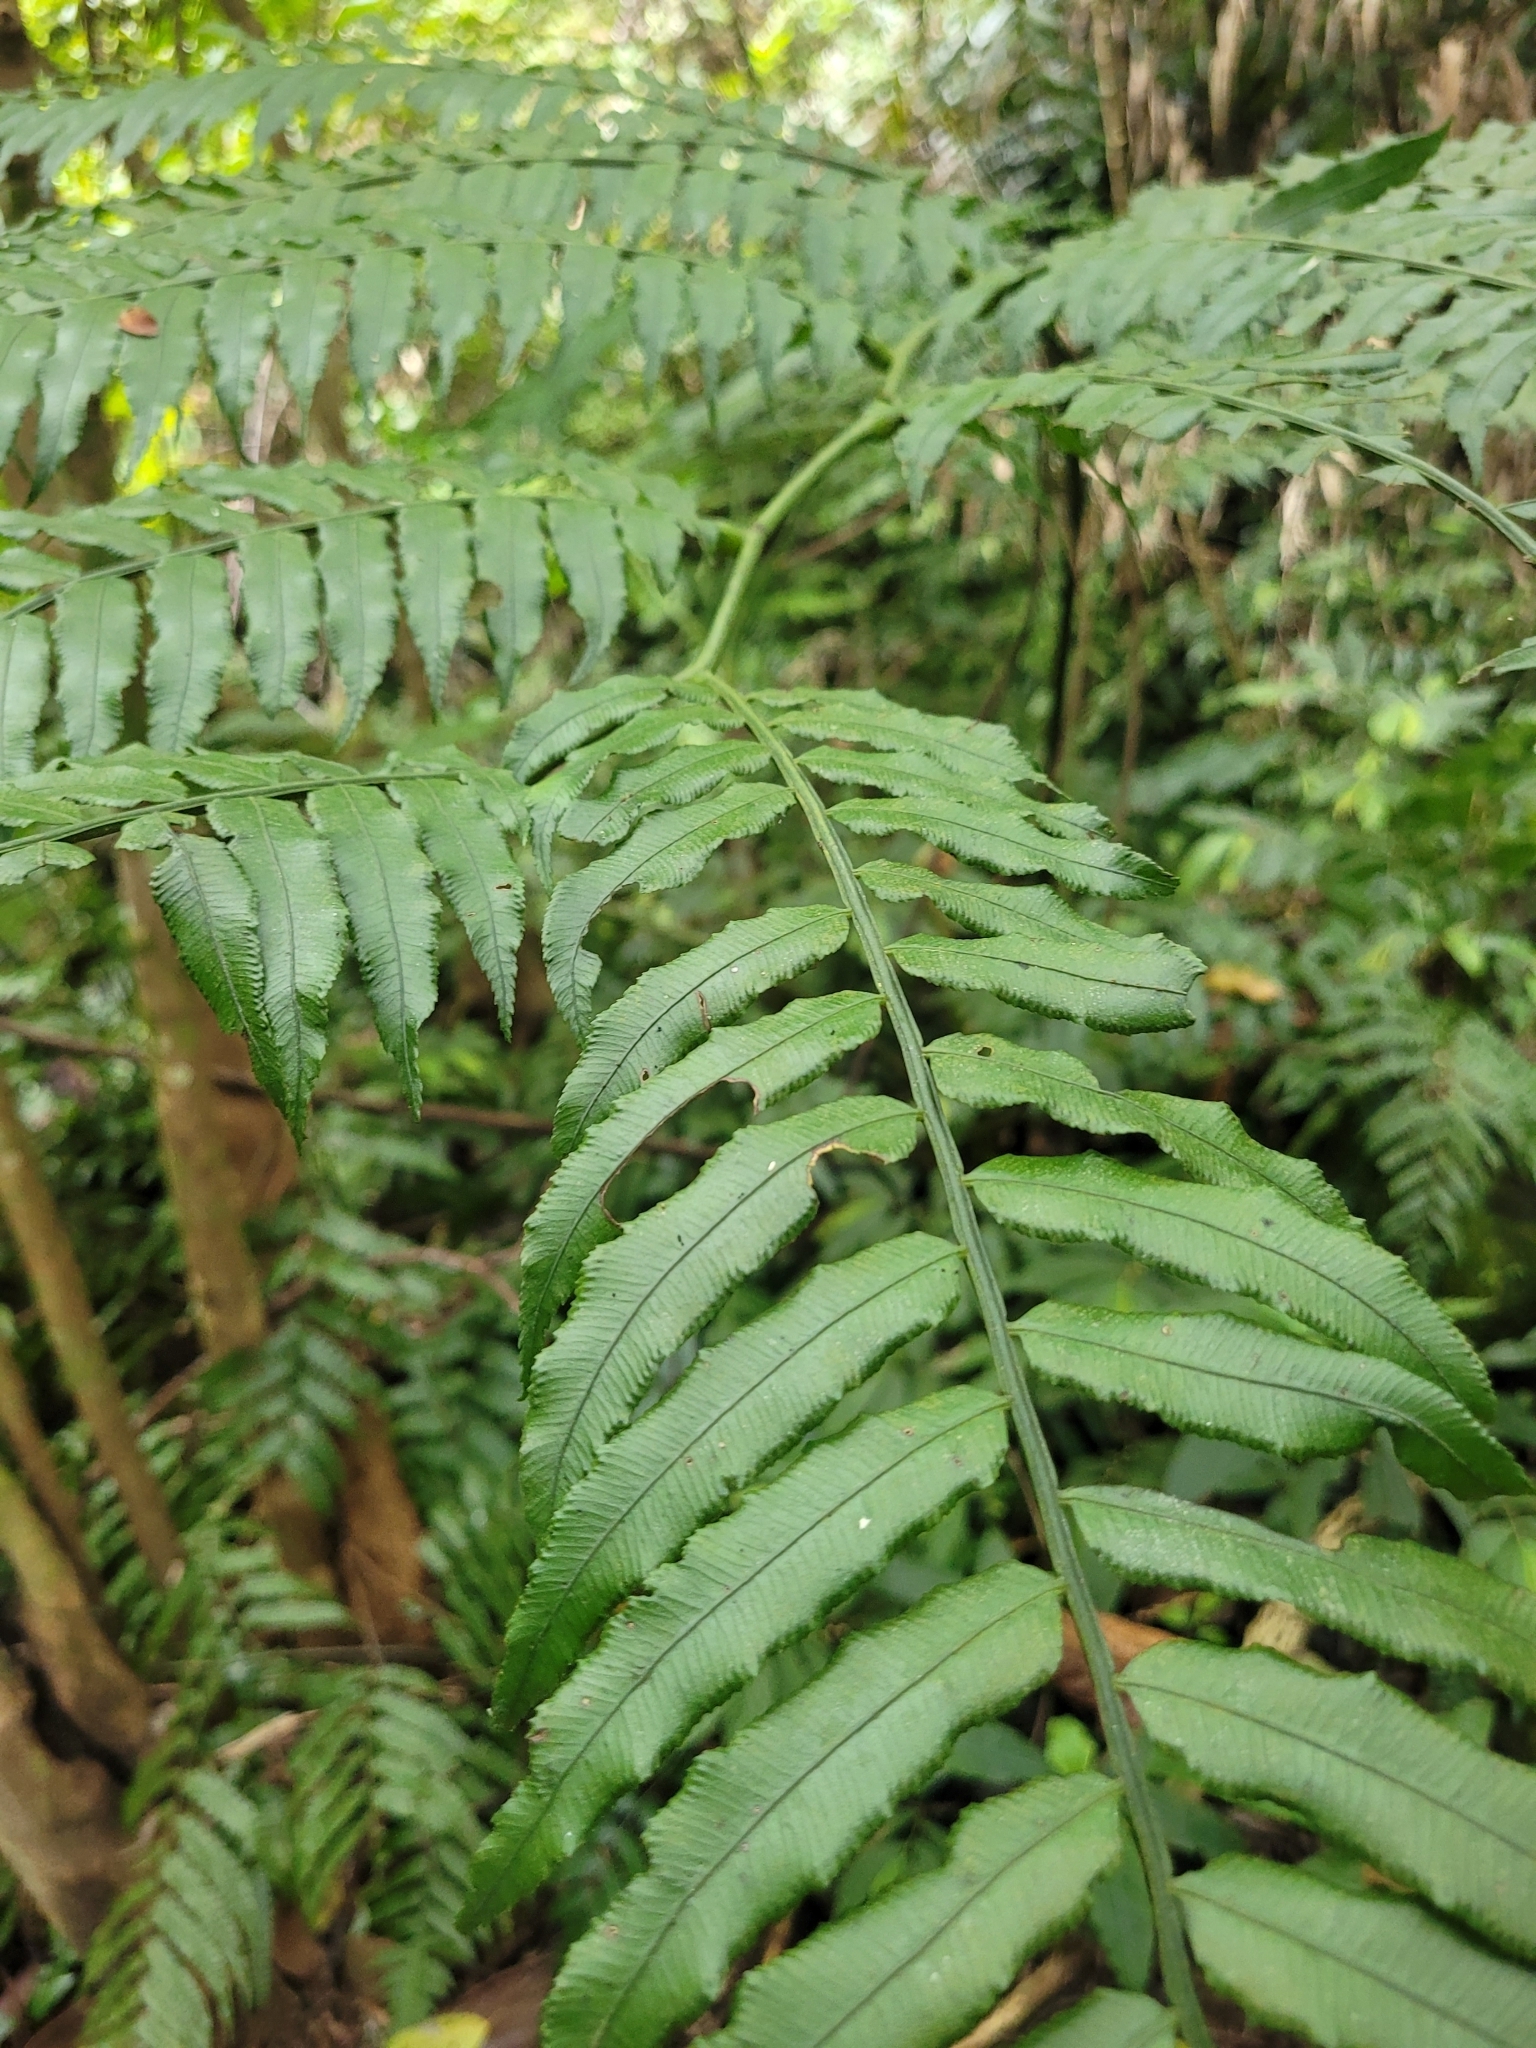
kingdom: Plantae
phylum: Tracheophyta
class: Polypodiopsida
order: Marattiales
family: Marattiaceae
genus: Angiopteris
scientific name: Angiopteris lygodiifolia
